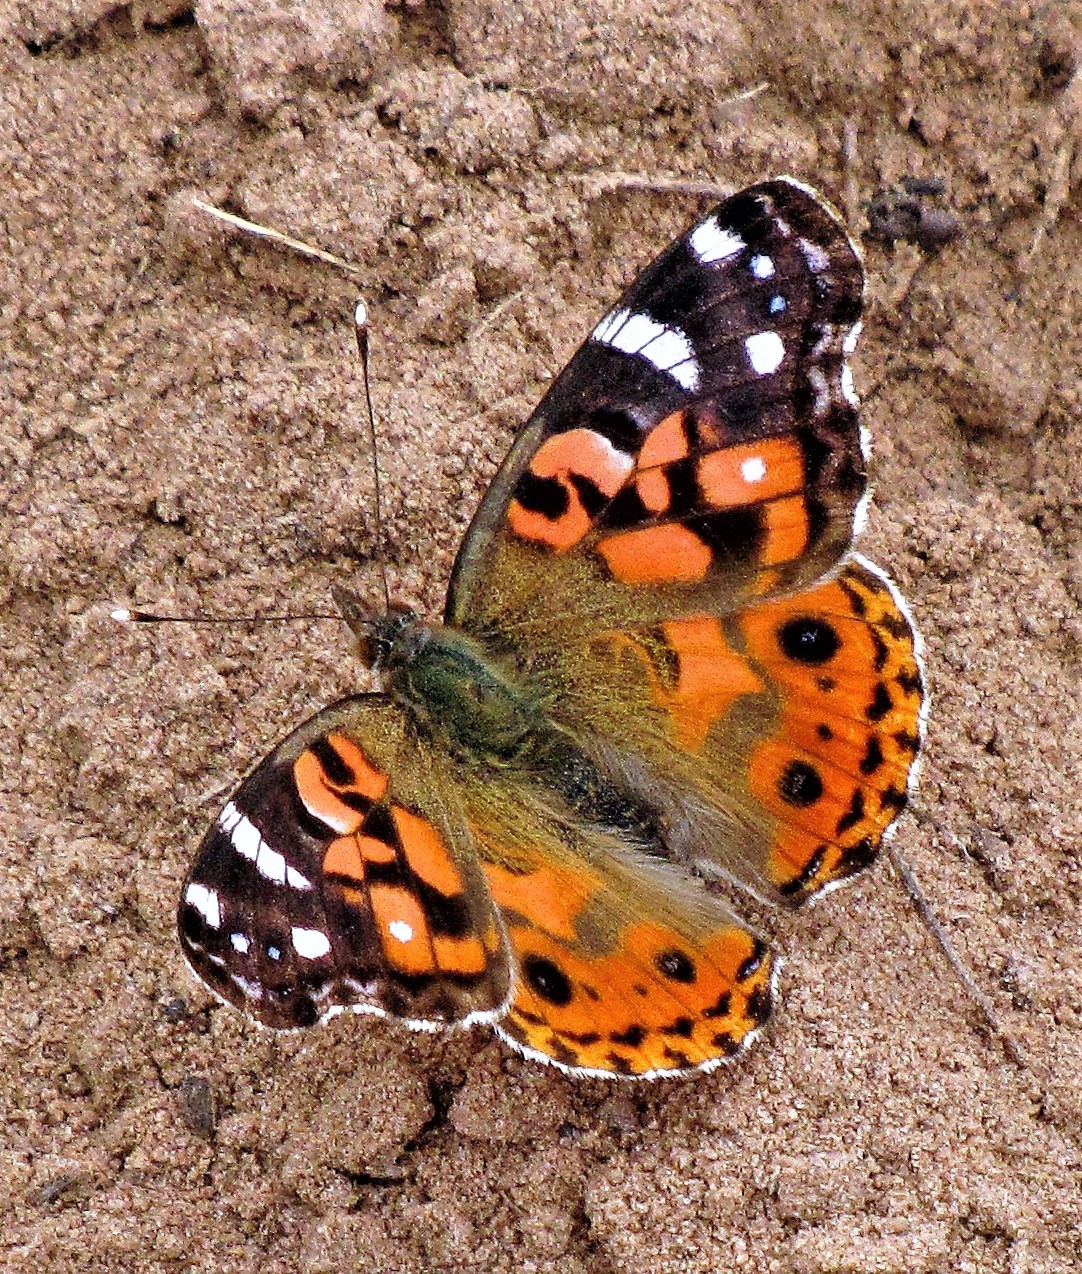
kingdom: Animalia
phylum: Arthropoda
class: Insecta
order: Lepidoptera
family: Nymphalidae
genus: Vanessa
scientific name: Vanessa braziliensis
